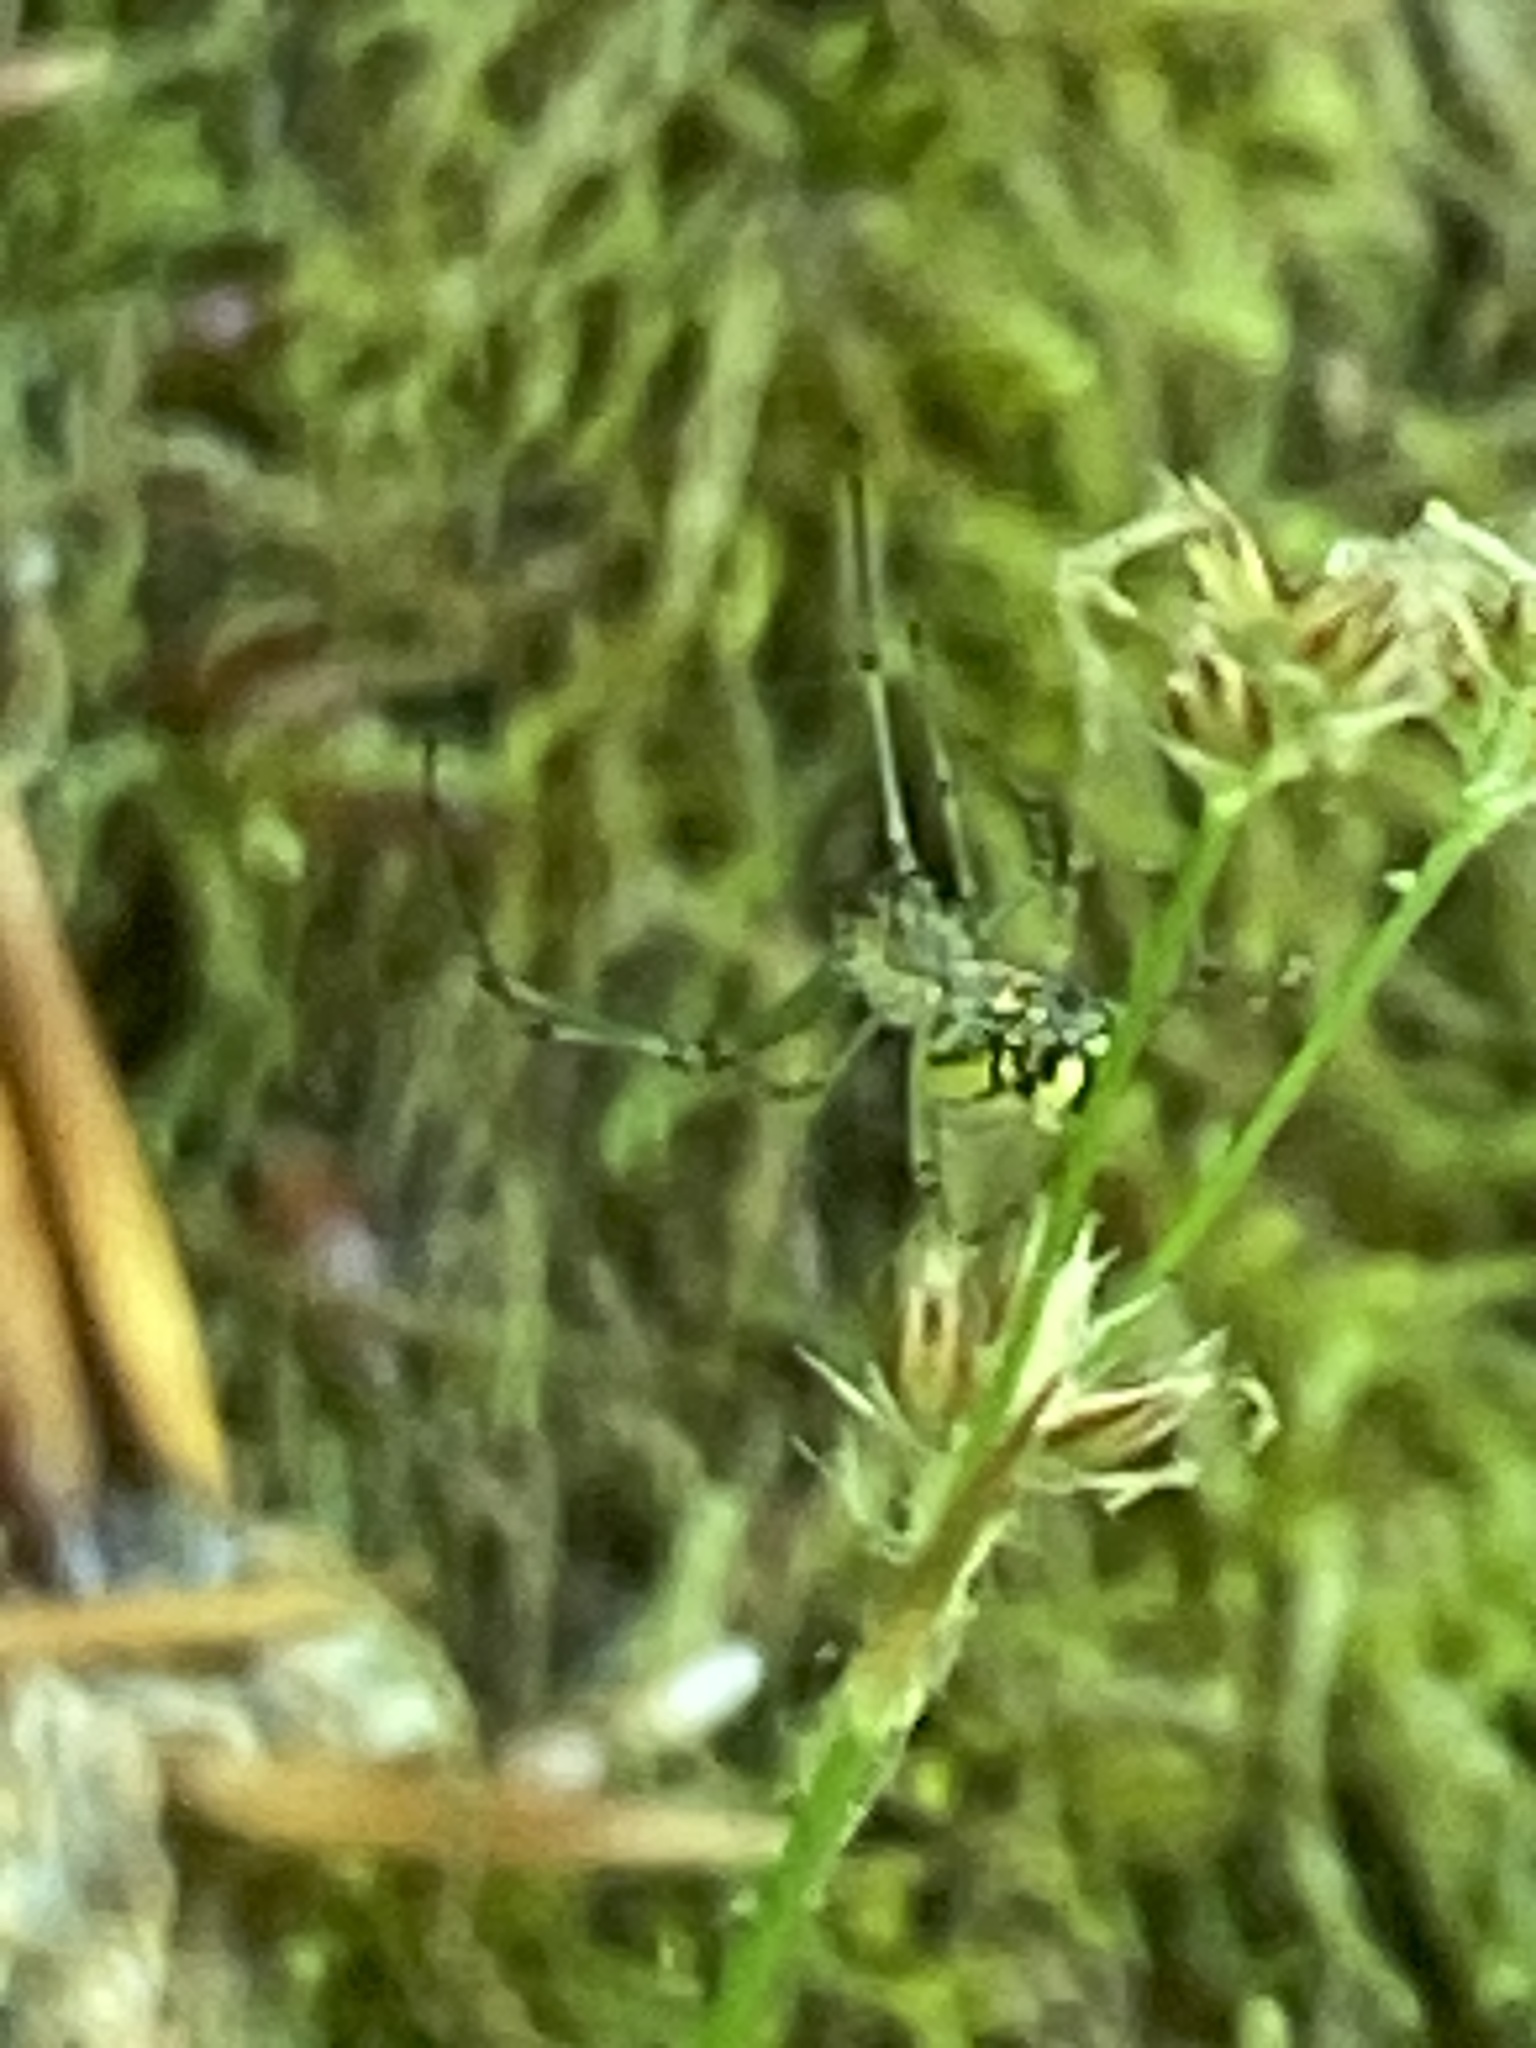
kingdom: Animalia
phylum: Arthropoda
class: Arachnida
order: Araneae
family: Tetragnathidae
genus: Leucauge
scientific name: Leucauge venusta
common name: Longjawed orb weavers
